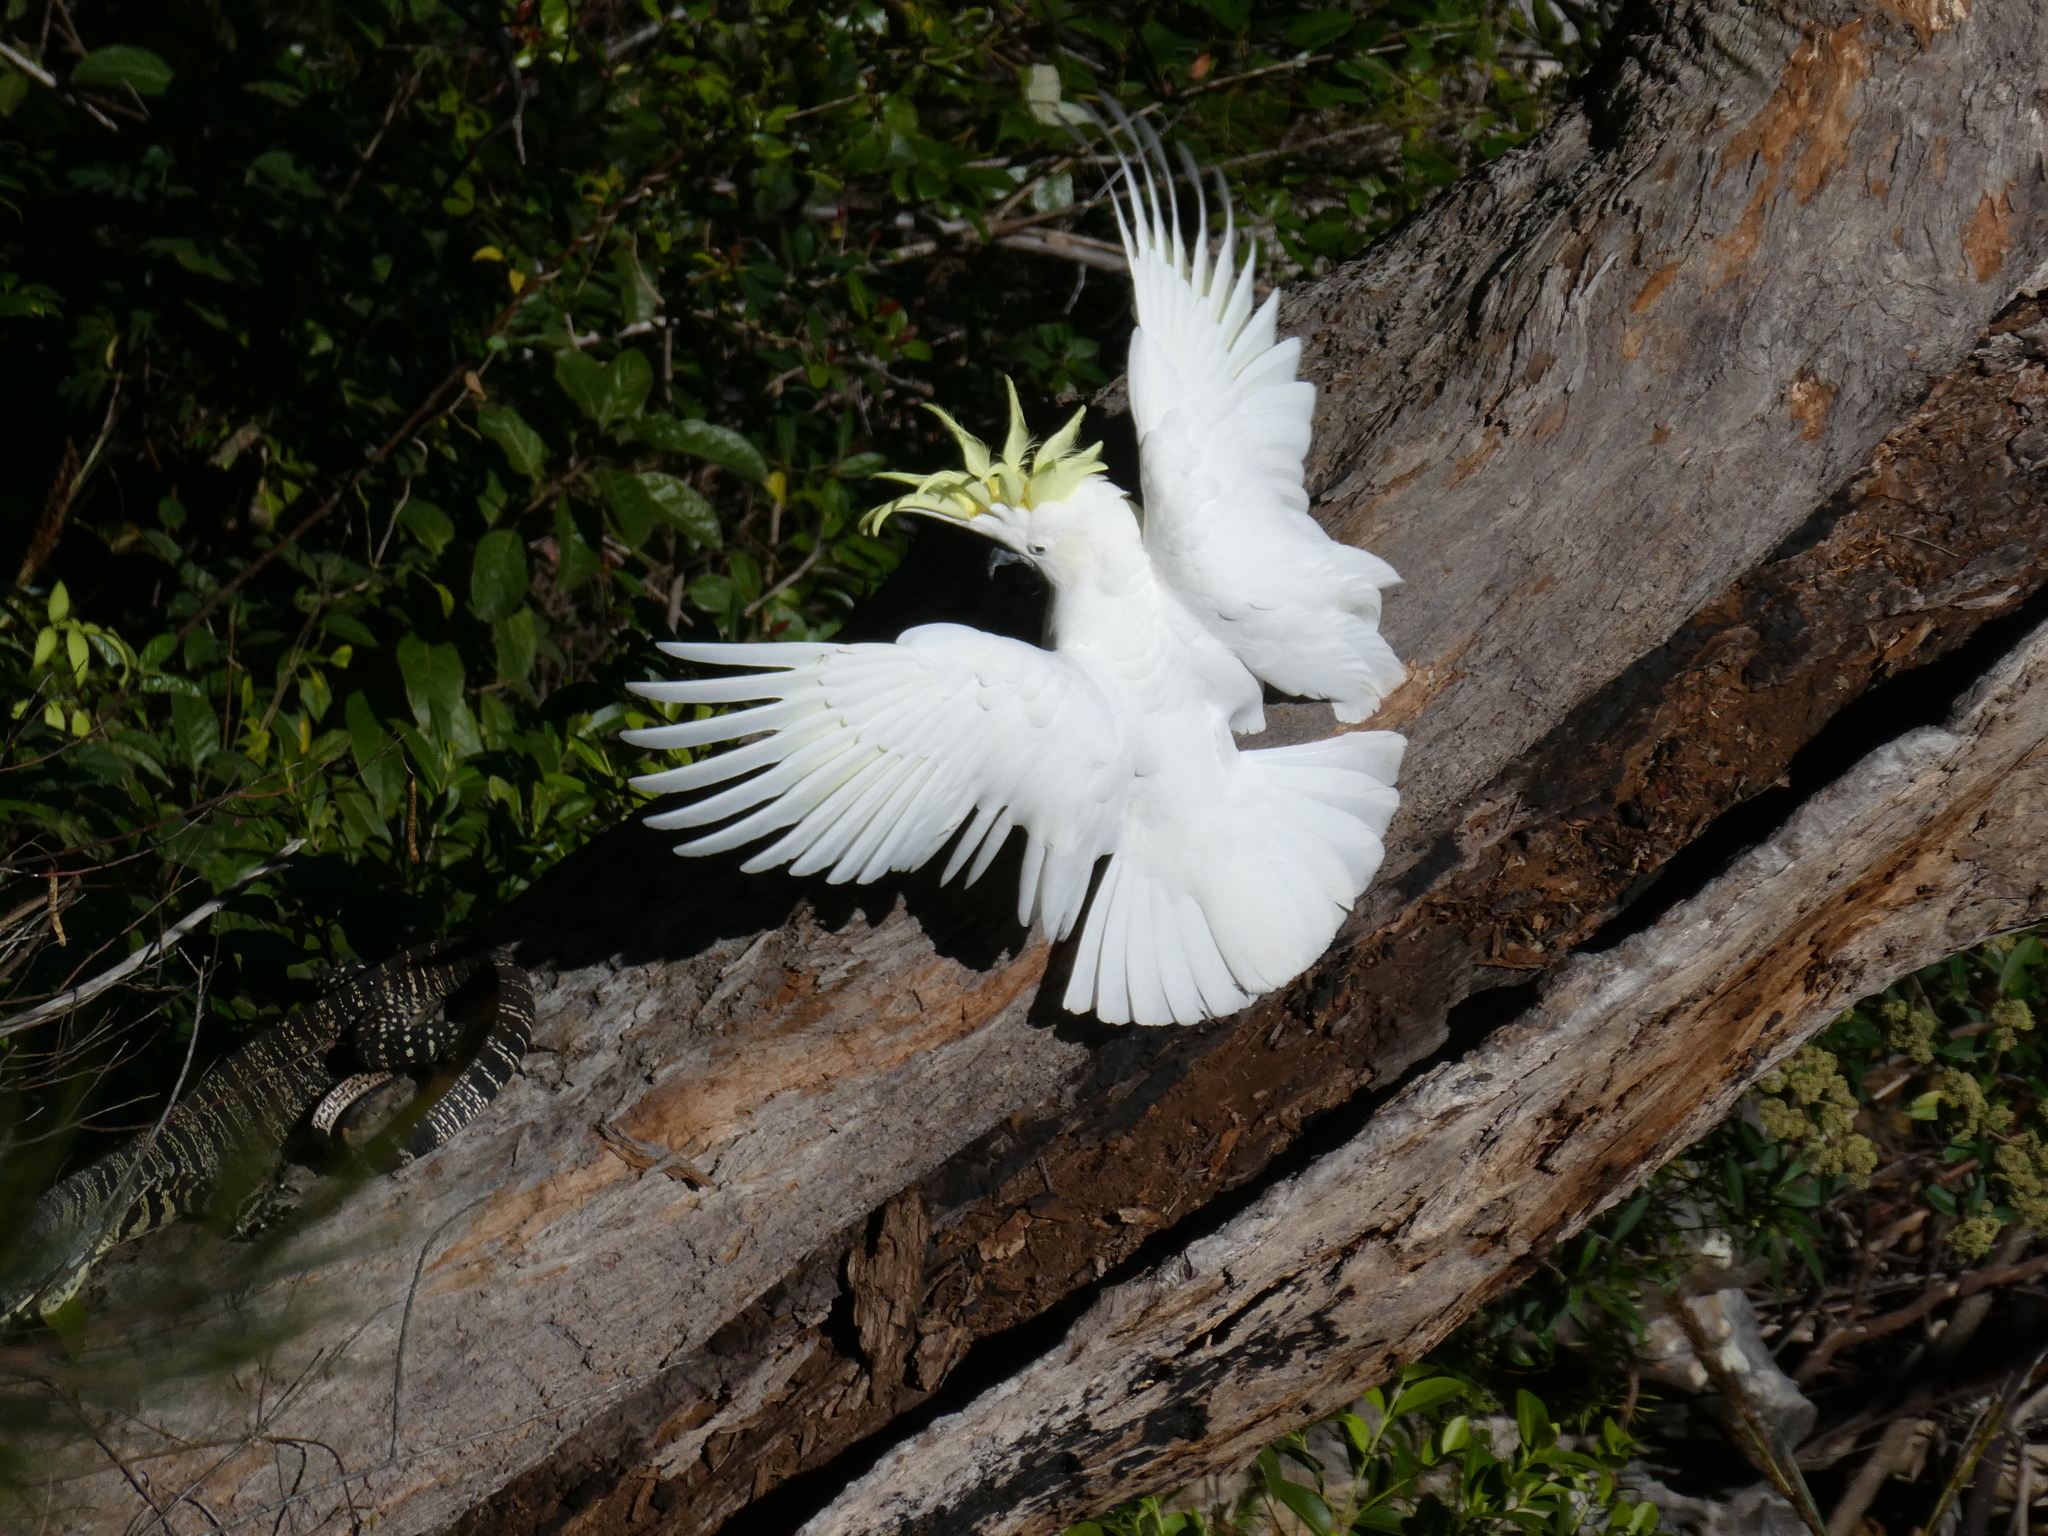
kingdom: Animalia
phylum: Chordata
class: Squamata
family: Varanidae
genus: Varanus
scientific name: Varanus varius
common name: Lace monitor
